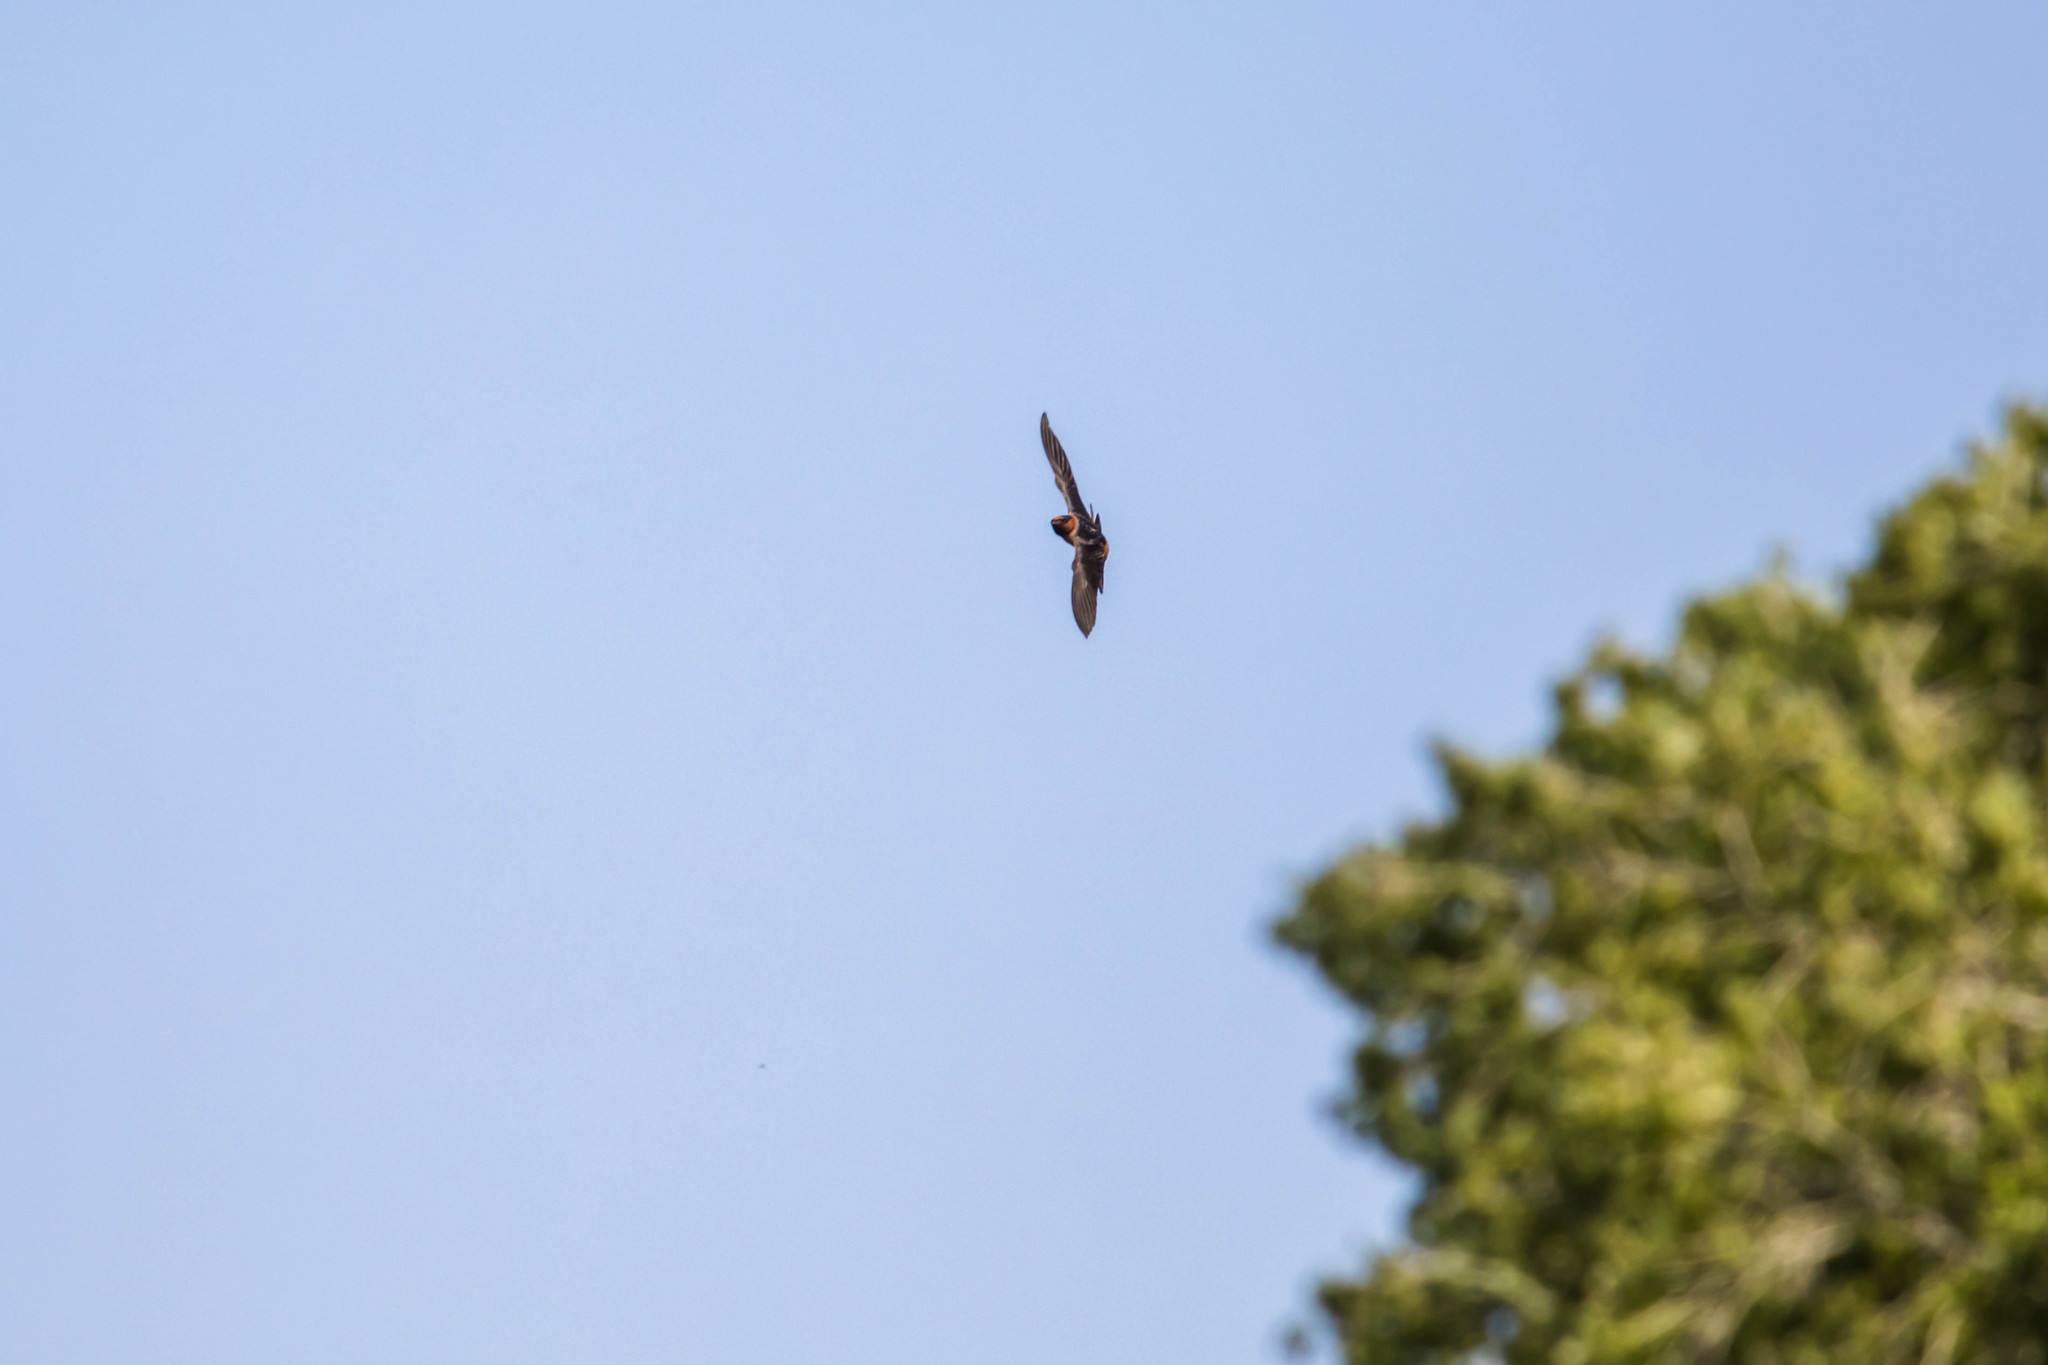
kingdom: Animalia
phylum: Chordata
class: Aves
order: Passeriformes
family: Hirundinidae
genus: Petrochelidon
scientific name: Petrochelidon pyrrhonota
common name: American cliff swallow
